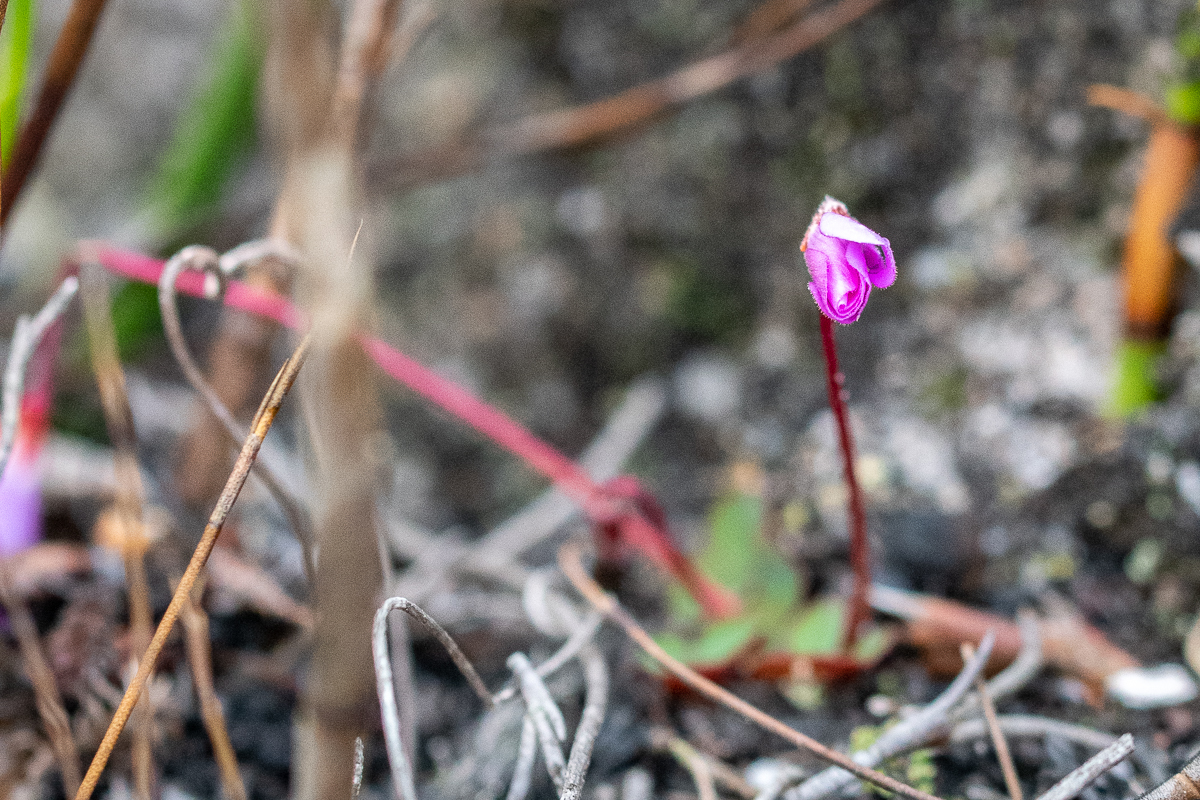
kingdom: Plantae
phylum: Tracheophyta
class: Magnoliopsida
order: Oxalidales
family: Oxalidaceae
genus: Oxalis
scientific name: Oxalis commutata
